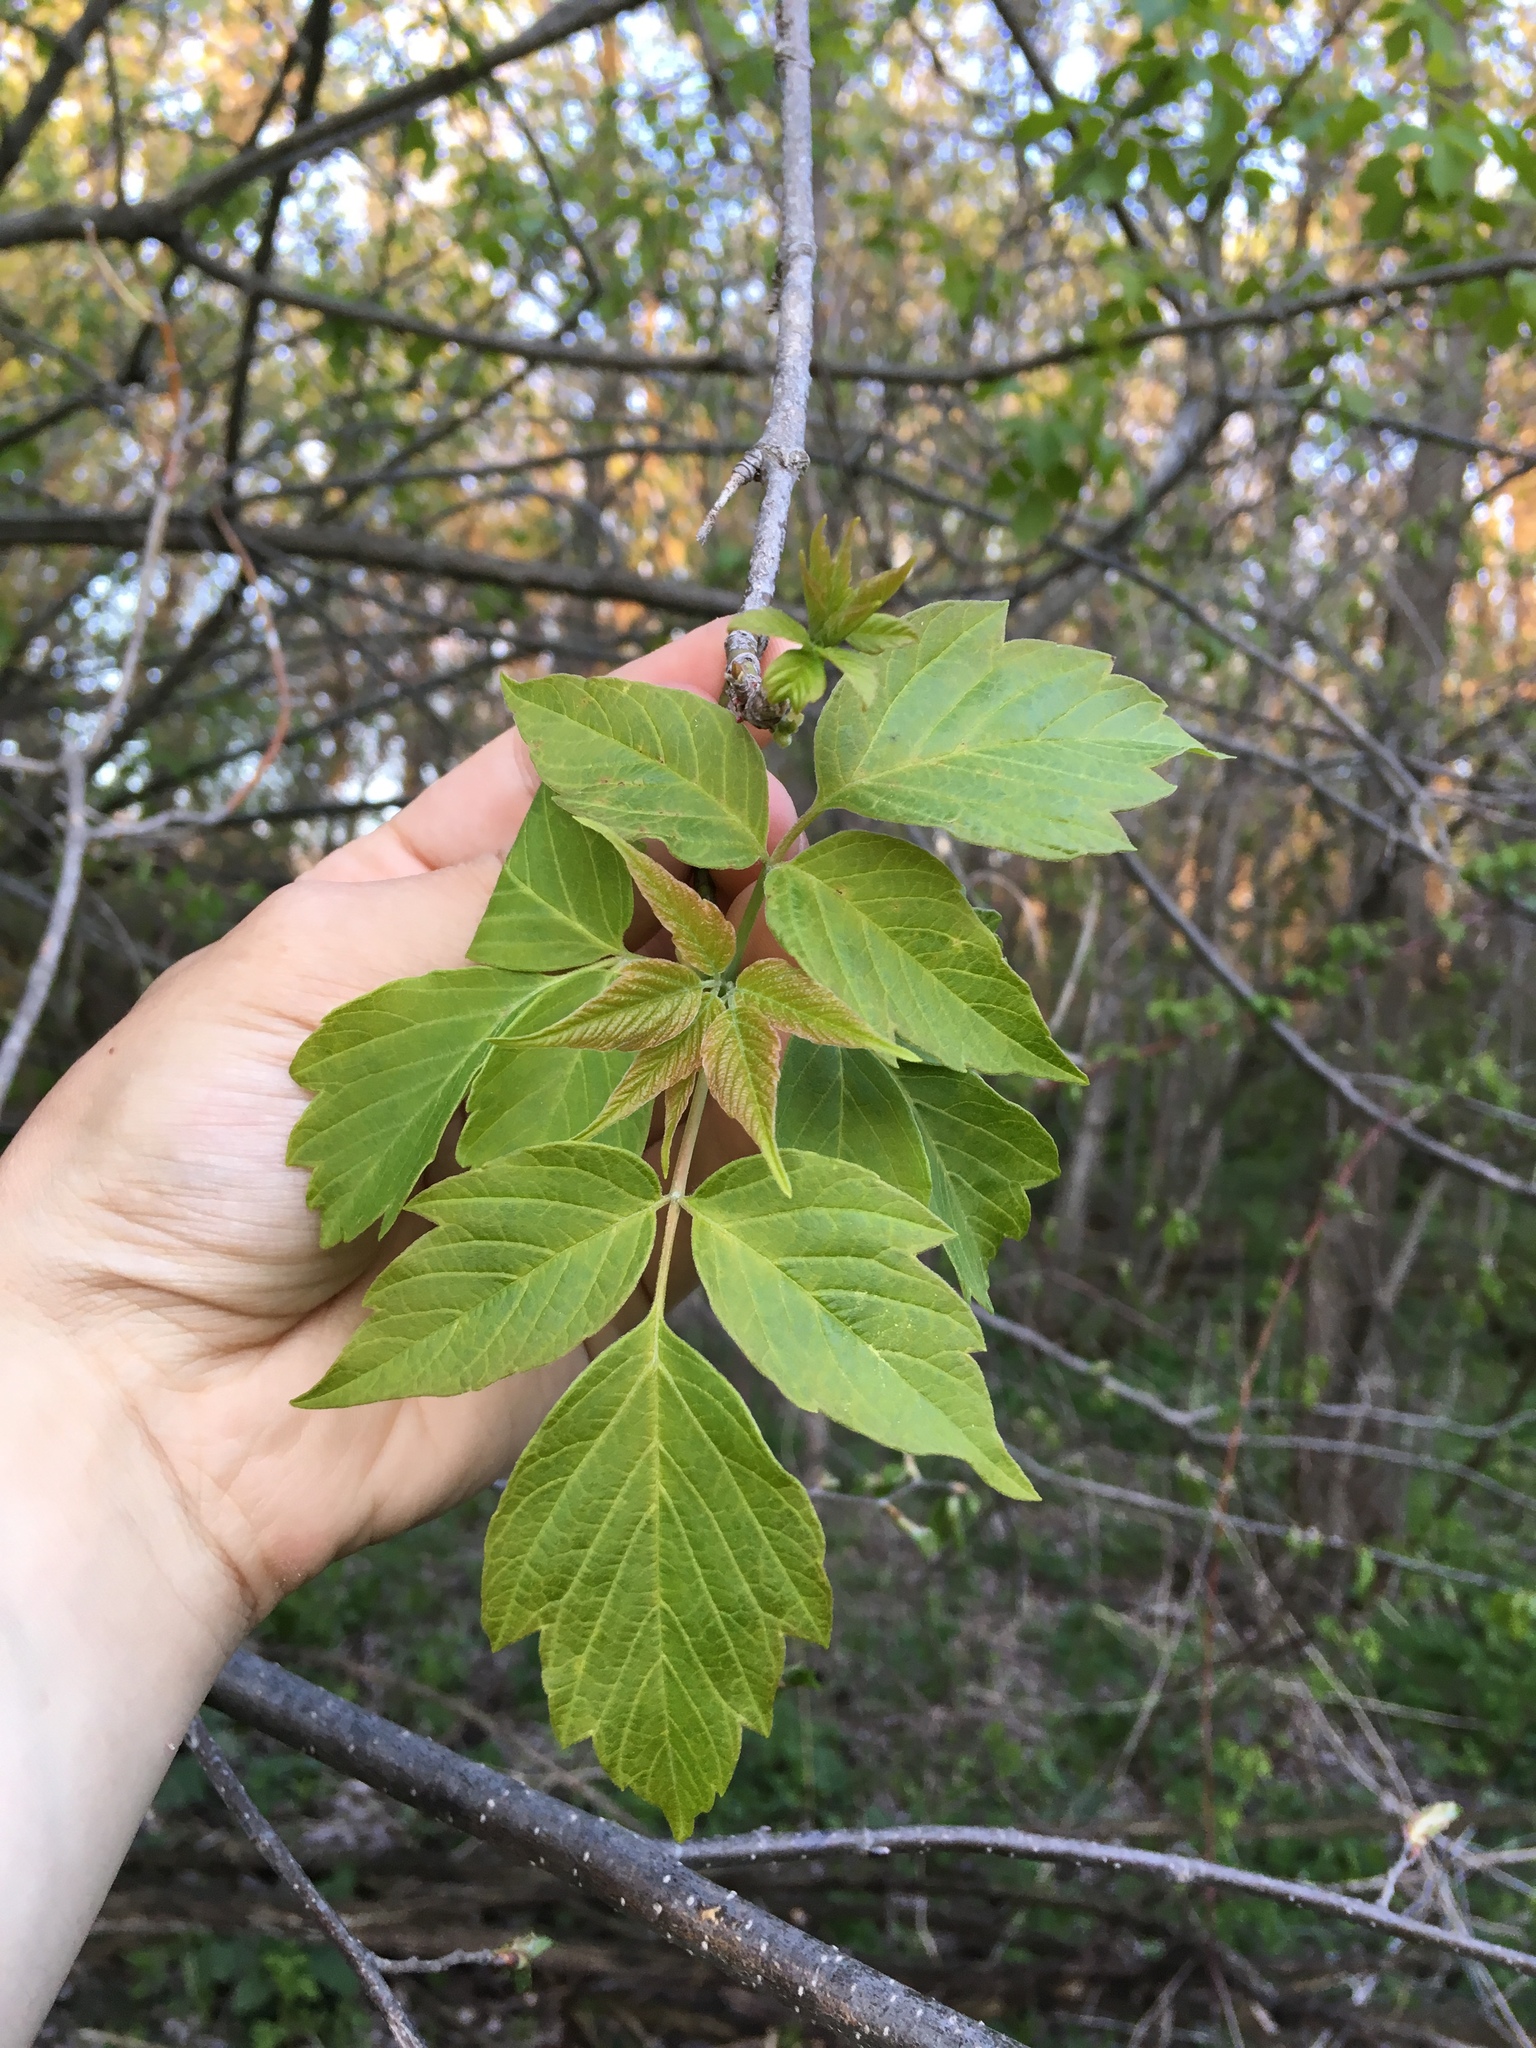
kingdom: Plantae
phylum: Tracheophyta
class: Magnoliopsida
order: Sapindales
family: Sapindaceae
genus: Acer
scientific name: Acer negundo
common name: Ashleaf maple
